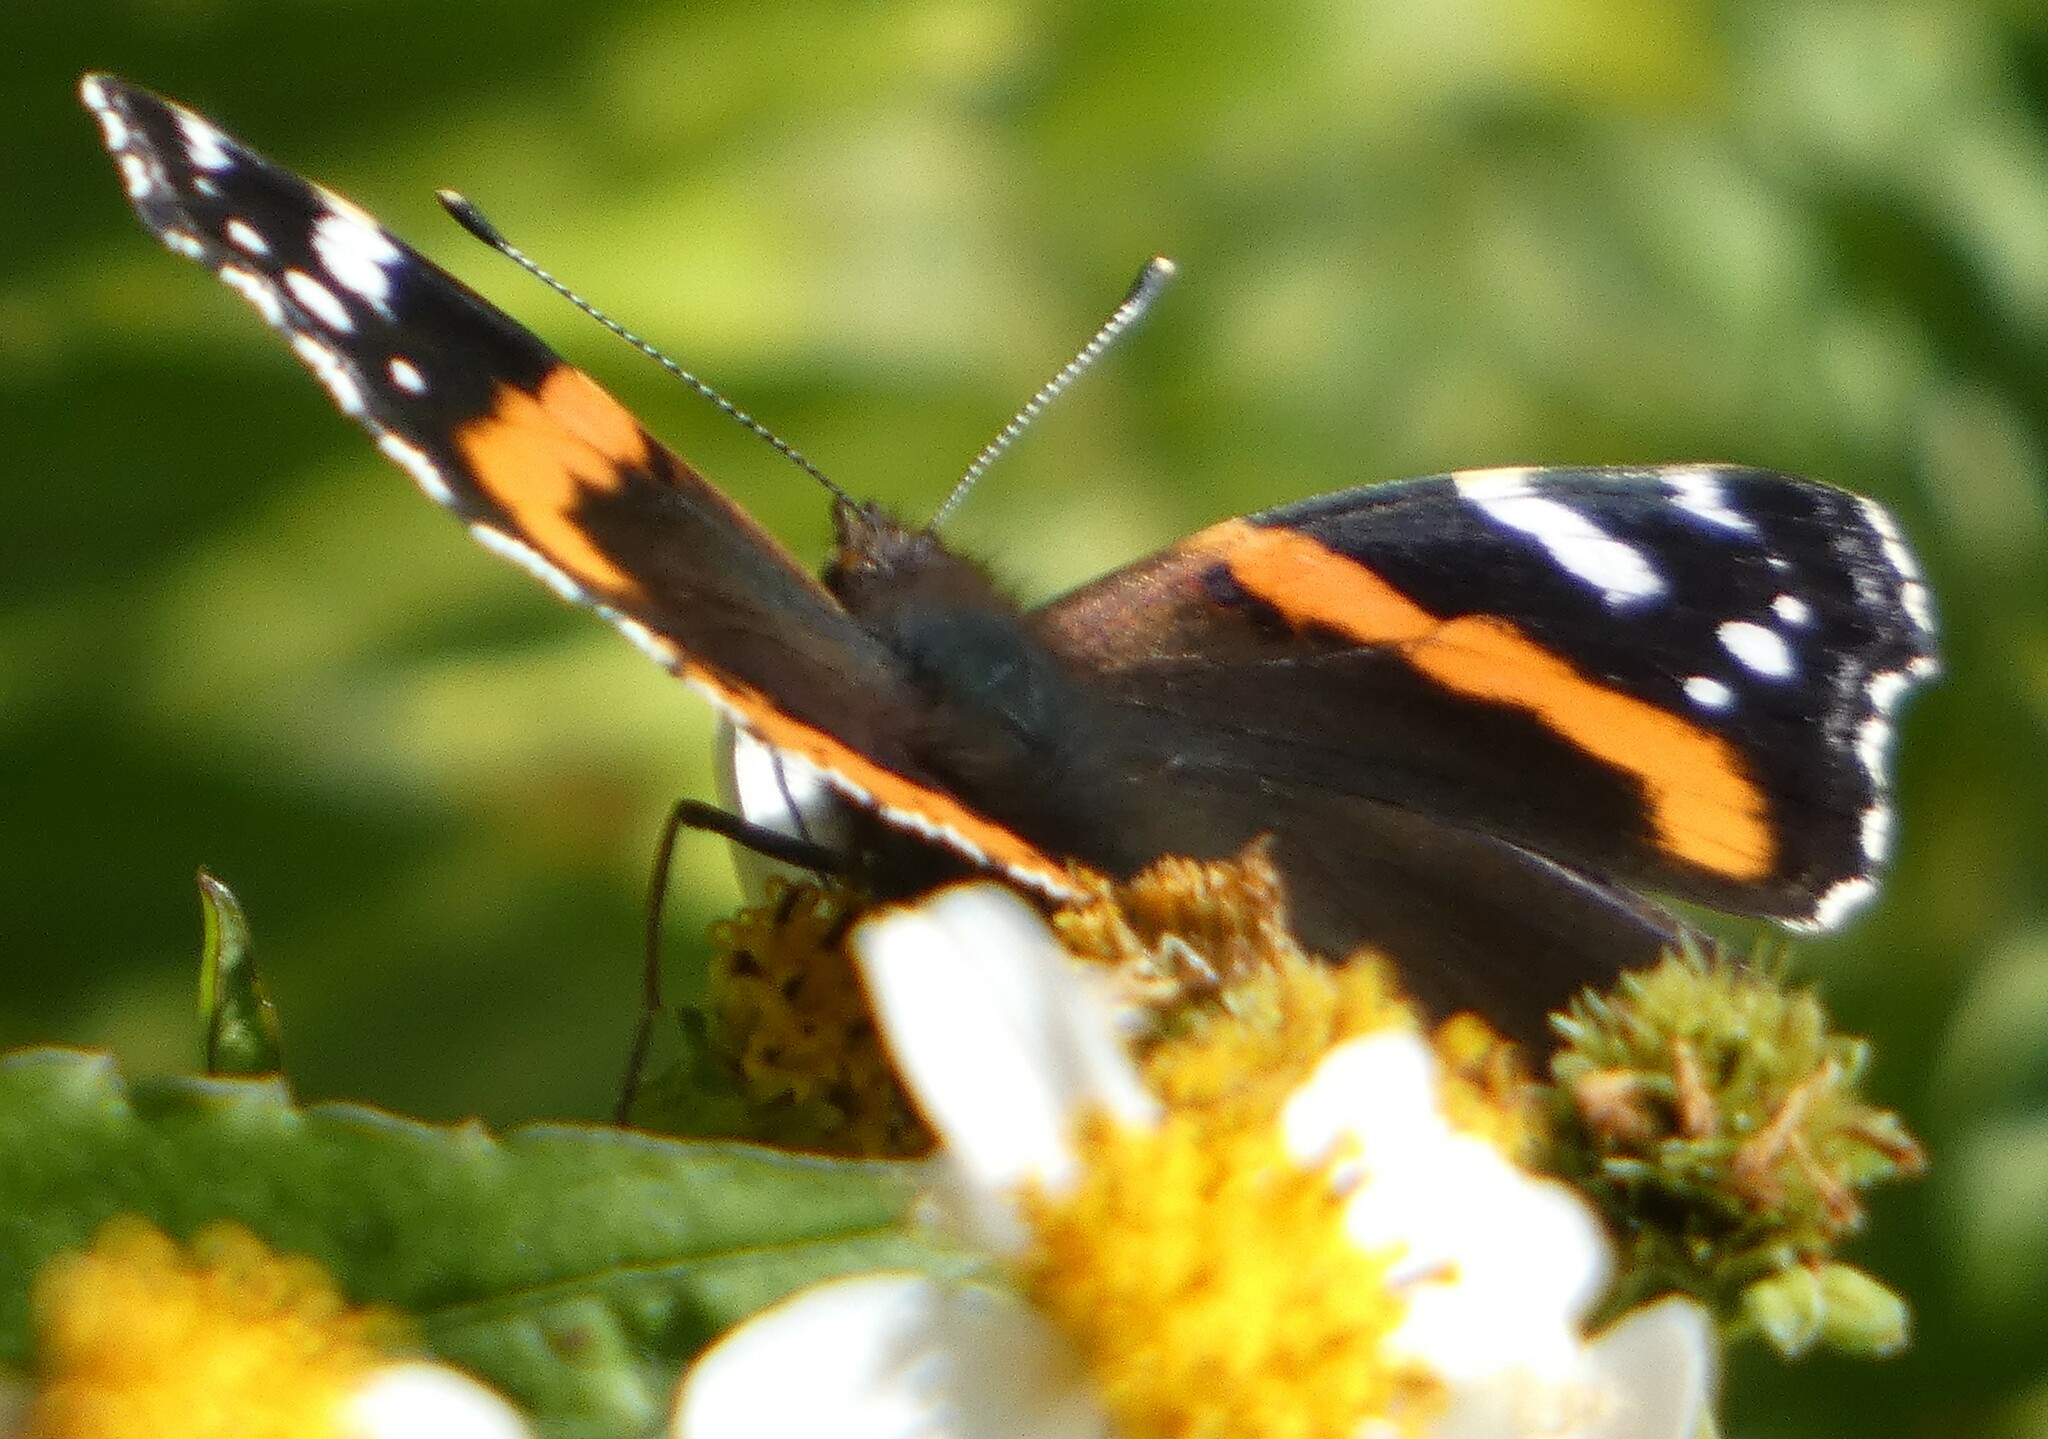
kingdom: Animalia
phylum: Arthropoda
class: Insecta
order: Lepidoptera
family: Nymphalidae
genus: Vanessa
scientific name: Vanessa atalanta
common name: Red admiral
